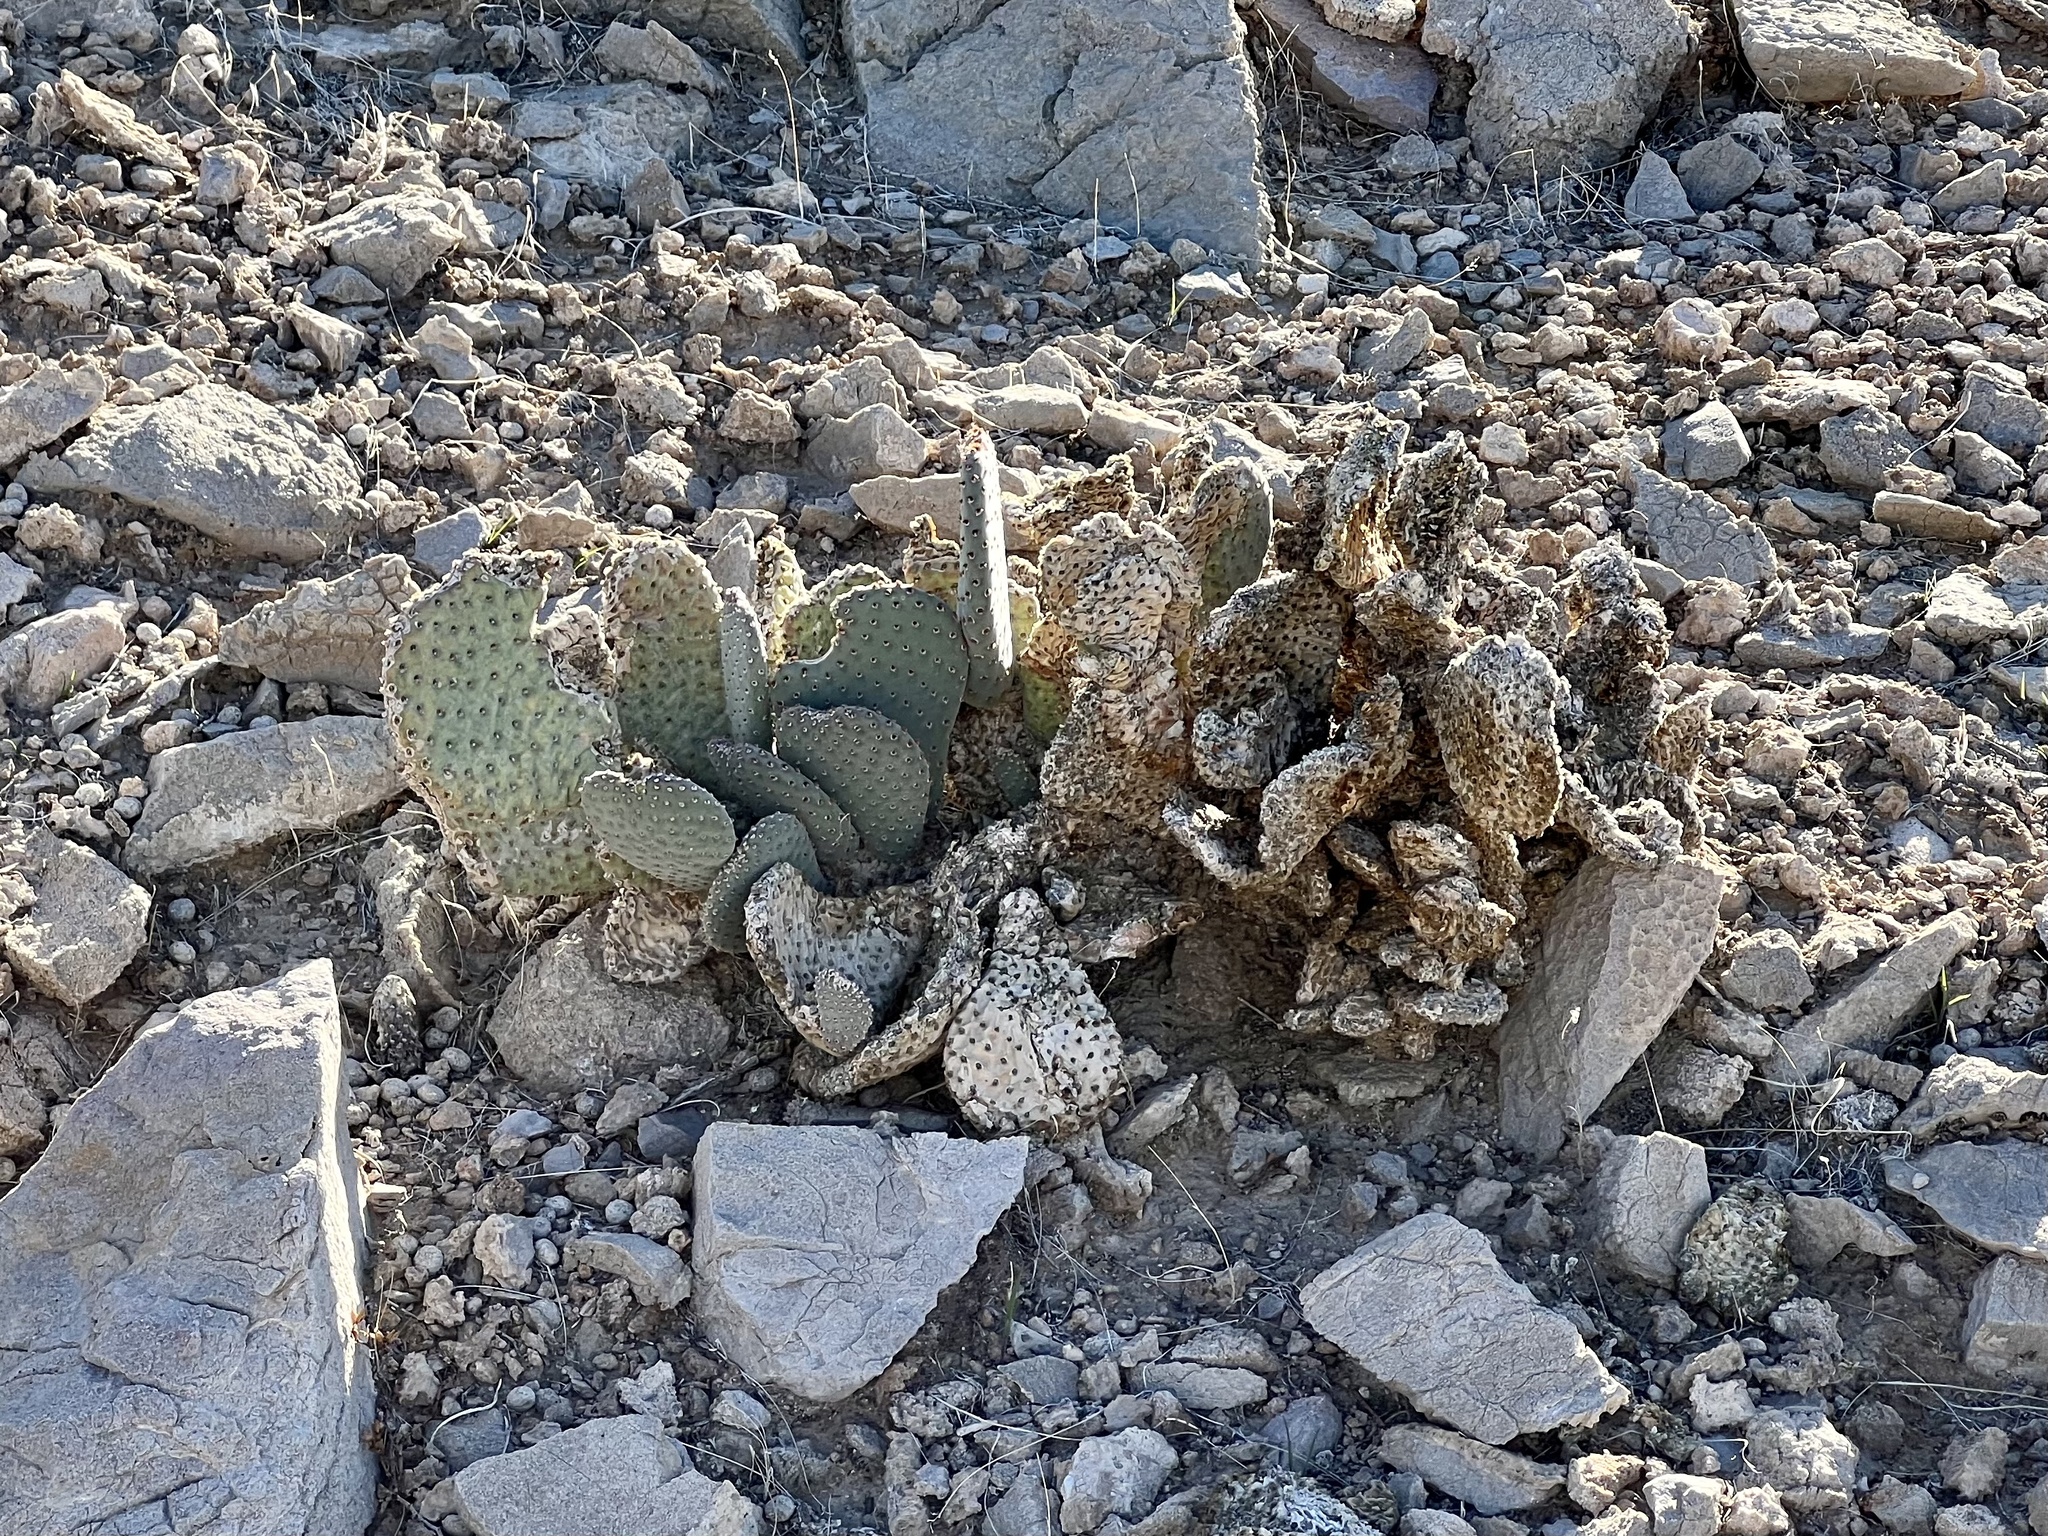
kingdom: Plantae
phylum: Tracheophyta
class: Magnoliopsida
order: Caryophyllales
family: Cactaceae
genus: Opuntia
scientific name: Opuntia basilaris
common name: Beavertail prickly-pear
